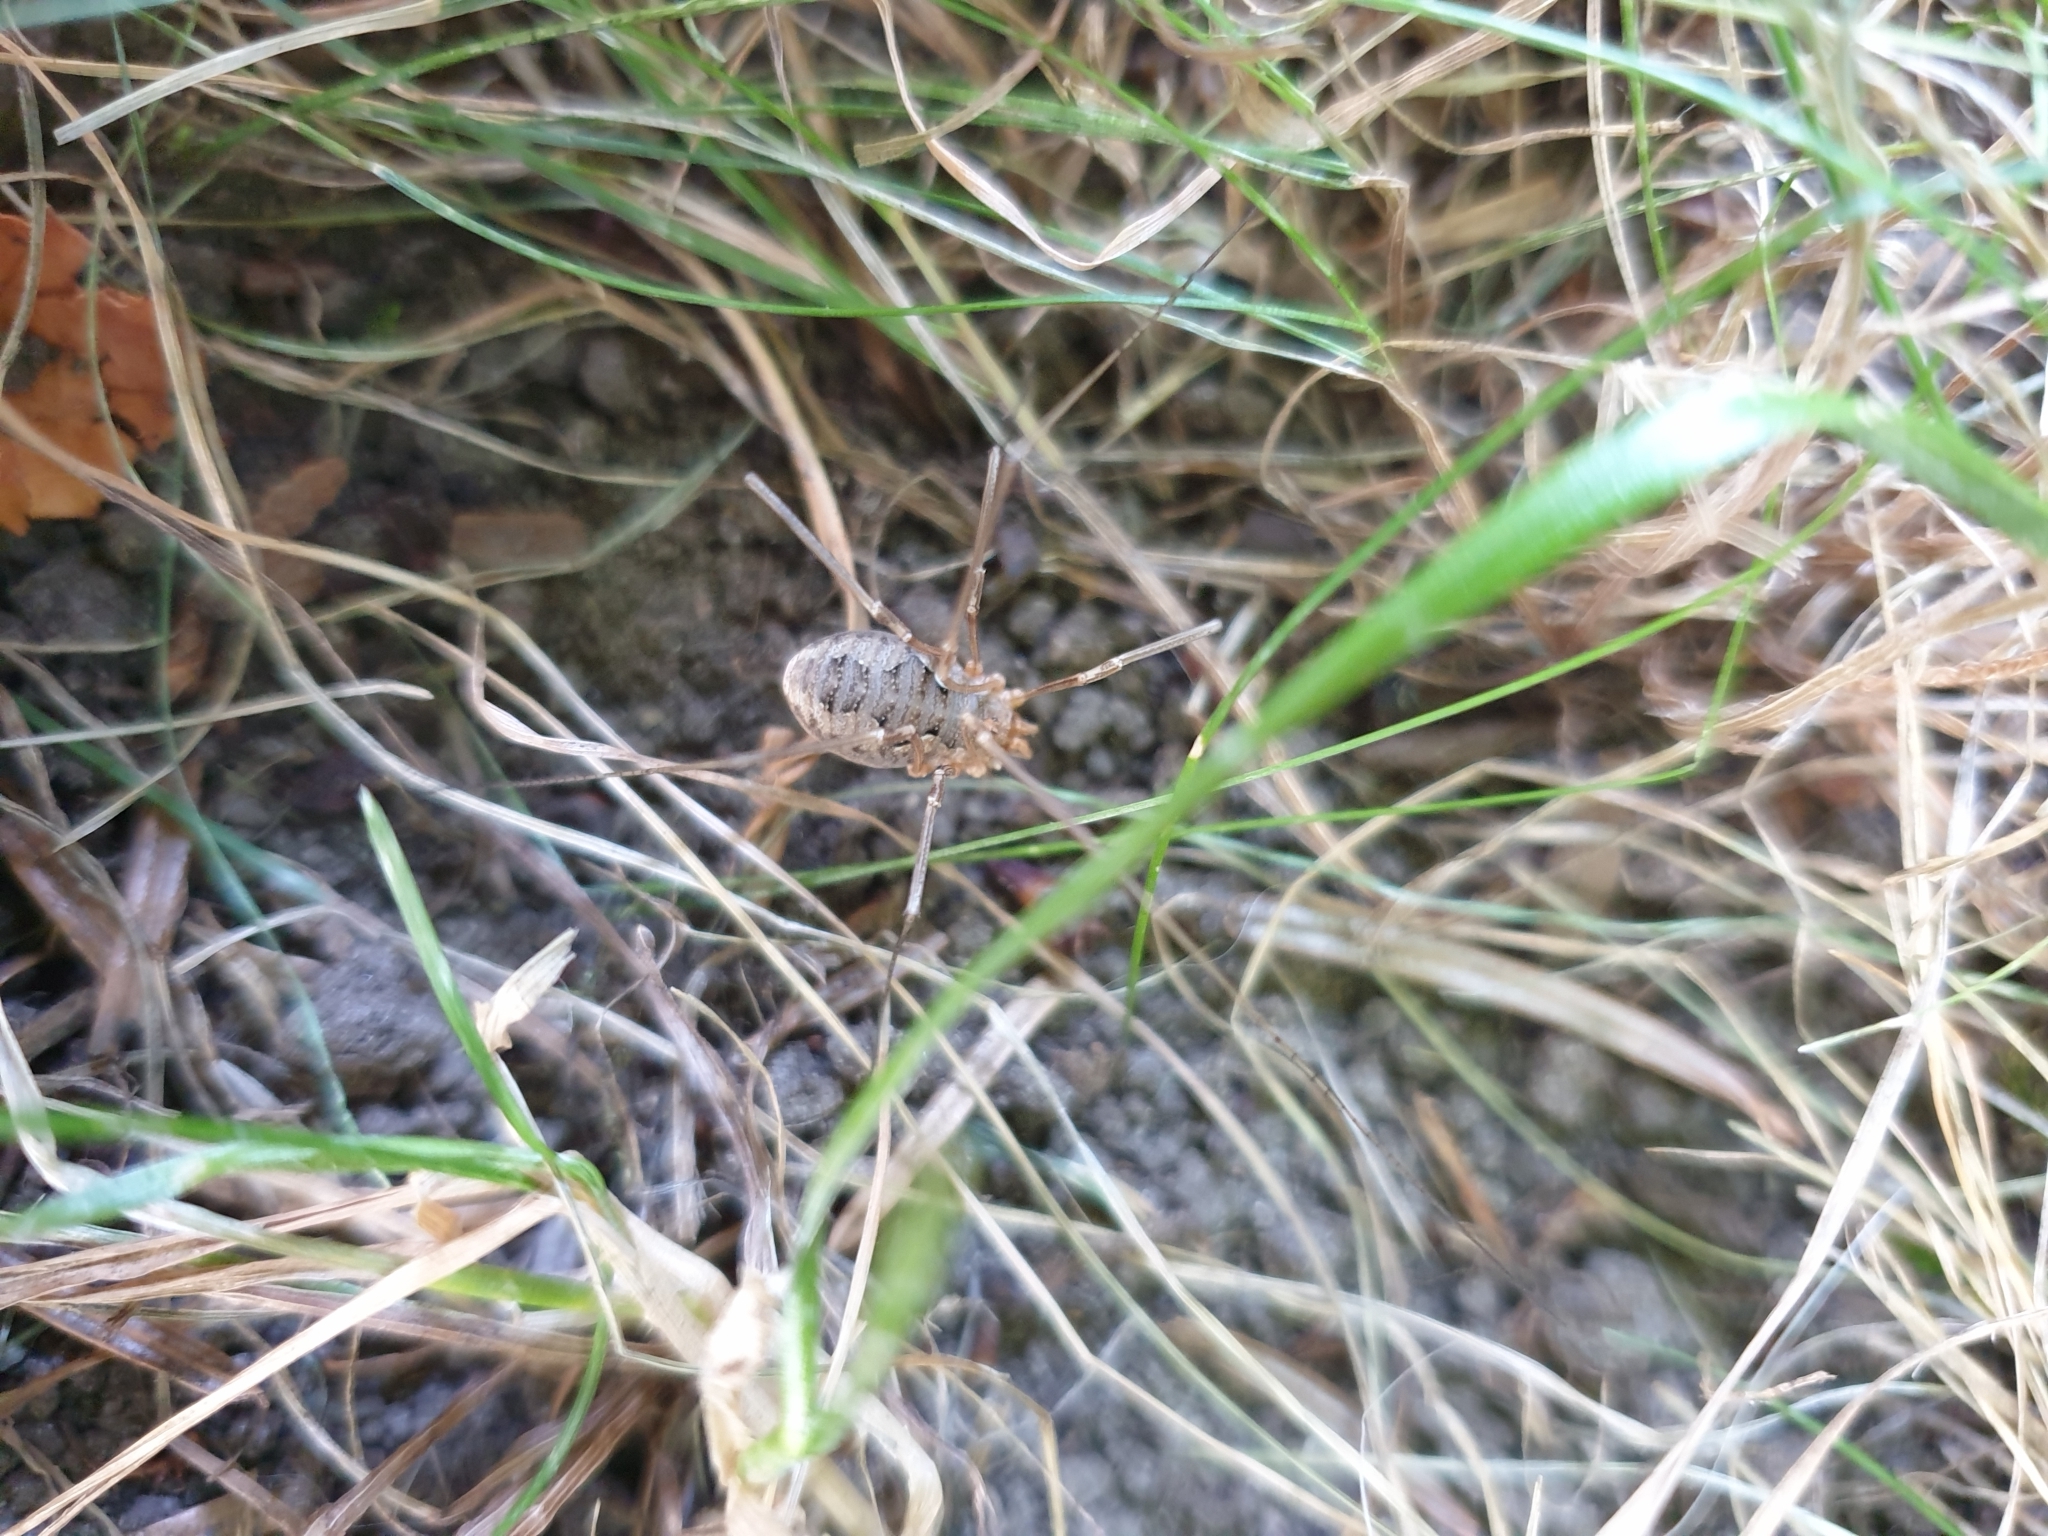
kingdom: Animalia
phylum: Arthropoda
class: Arachnida
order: Opiliones
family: Phalangiidae
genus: Phalangium
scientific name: Phalangium opilio
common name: Daddy longleg
